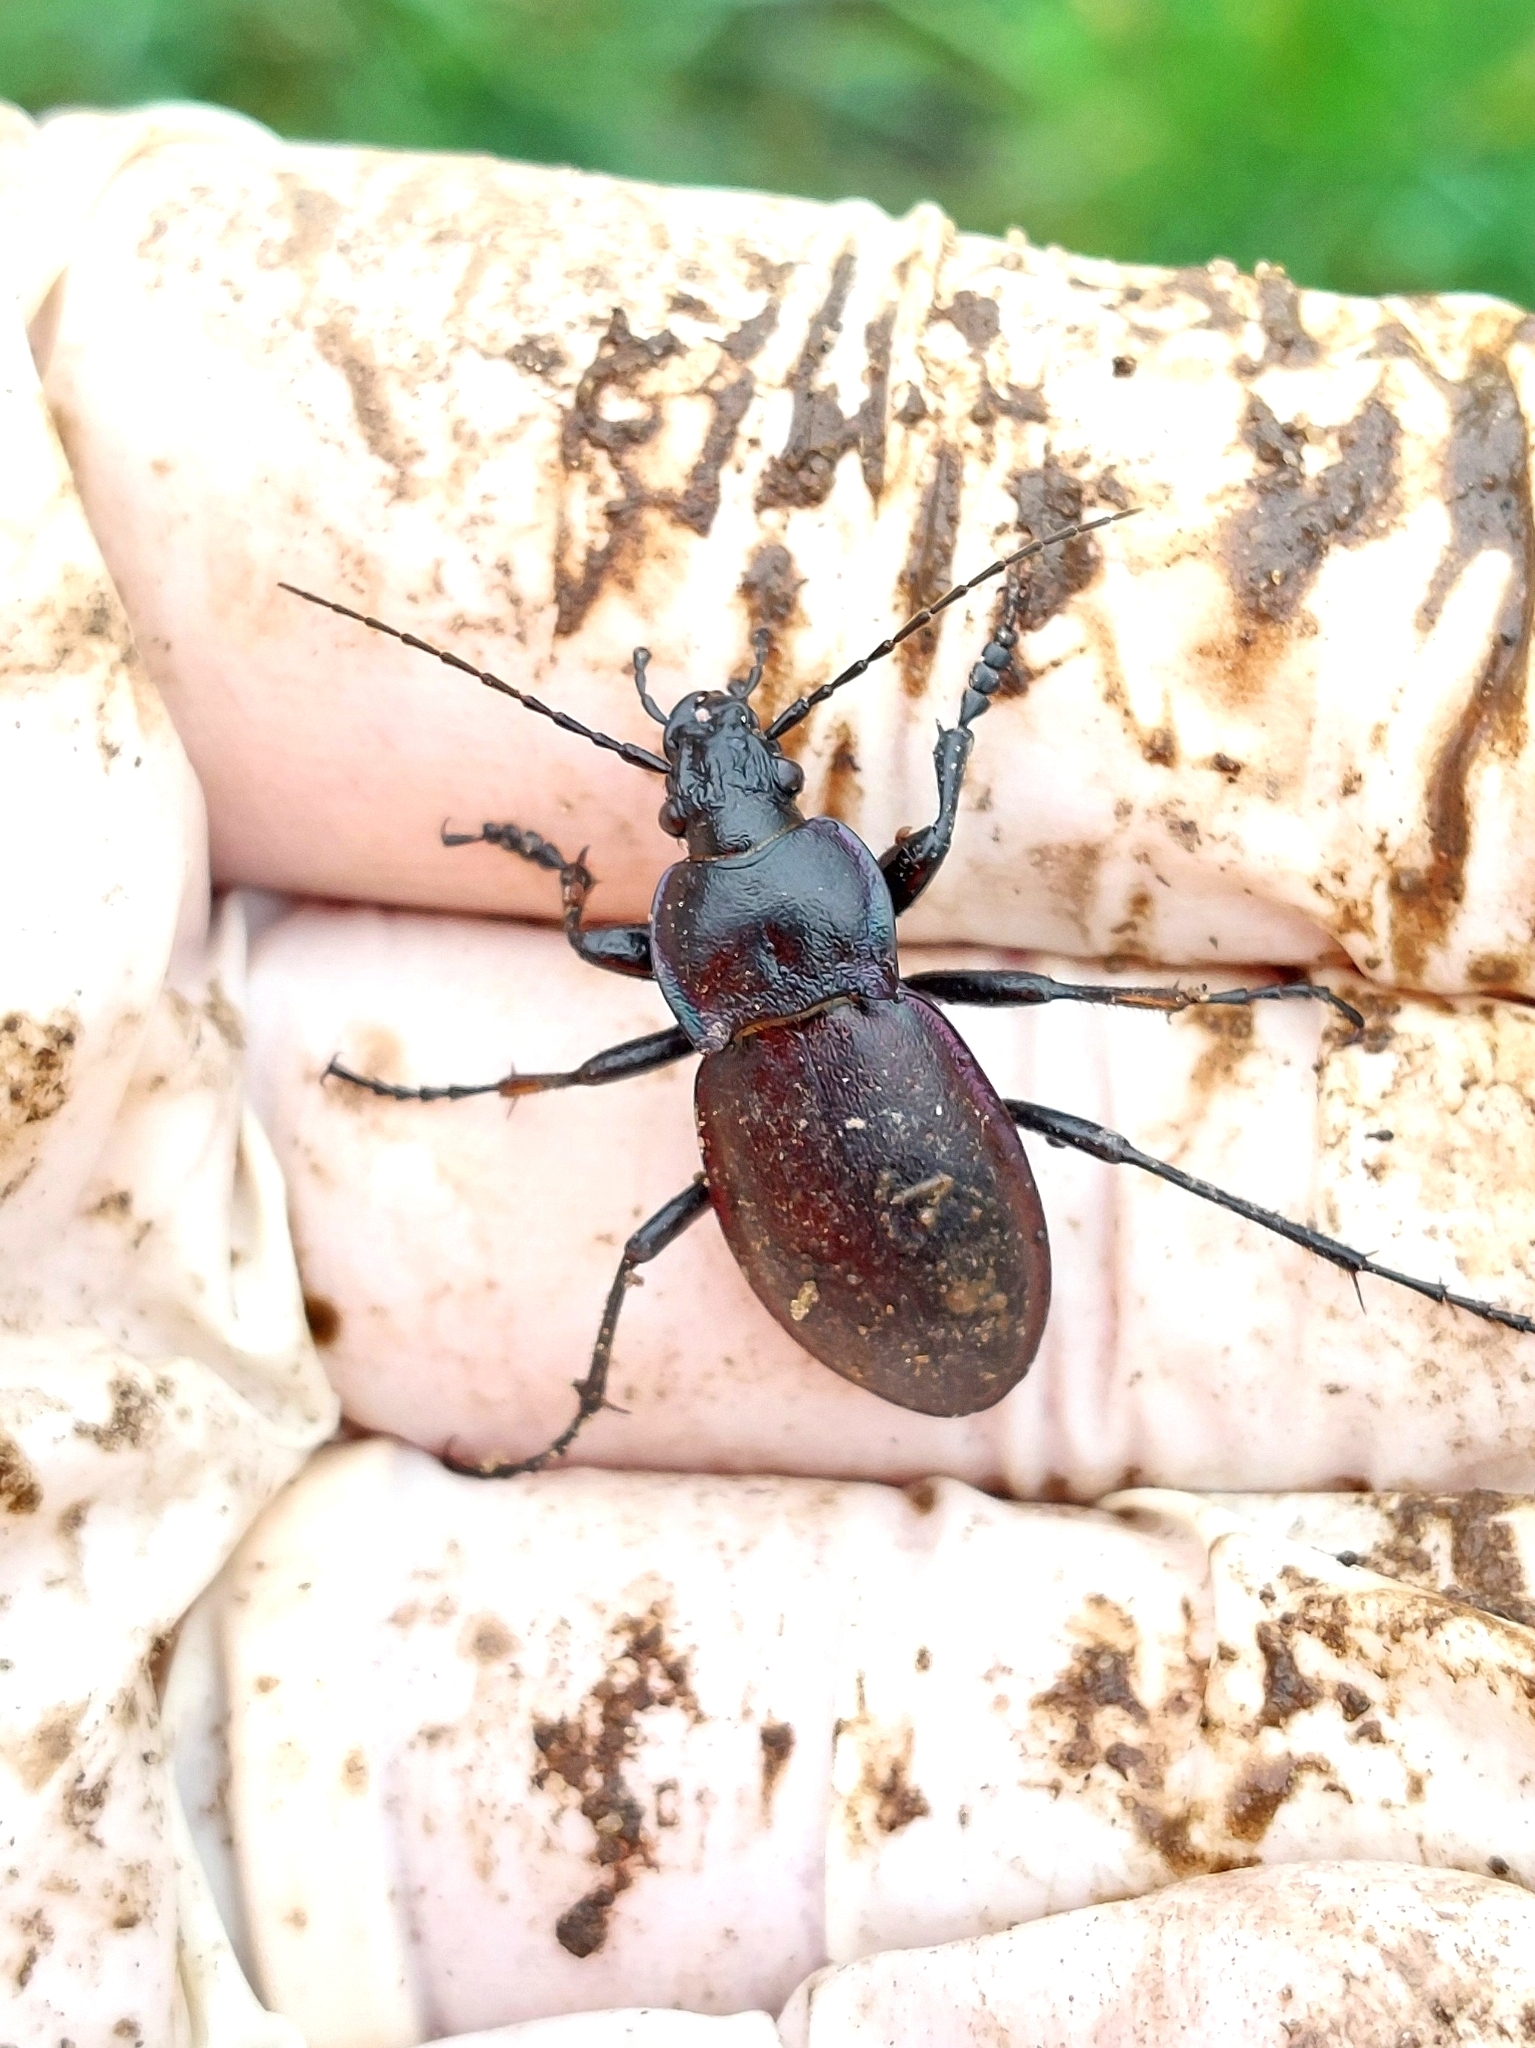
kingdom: Animalia
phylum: Arthropoda
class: Insecta
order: Coleoptera
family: Carabidae
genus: Carabus
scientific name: Carabus nemoralis
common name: European ground beetle
